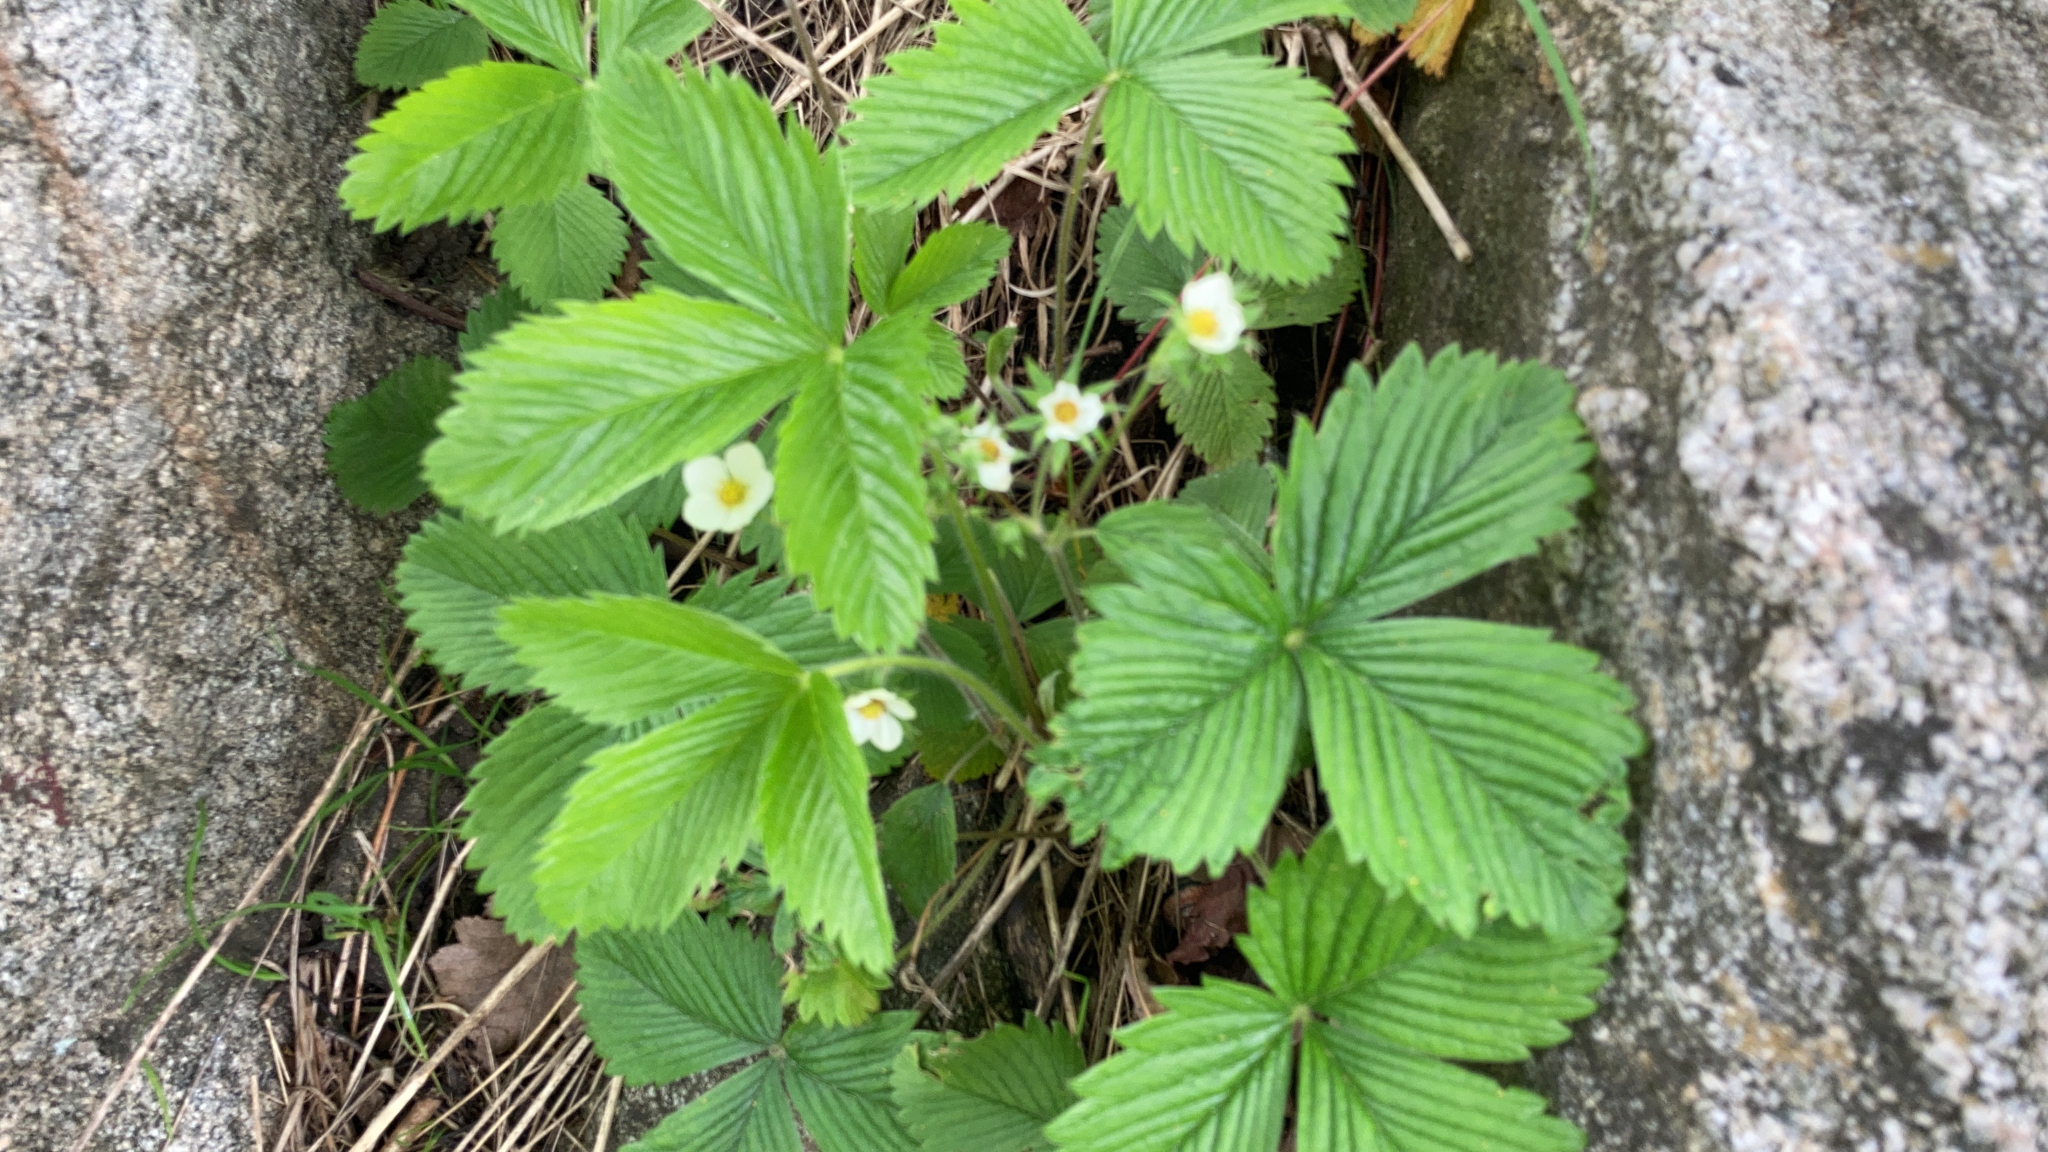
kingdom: Plantae
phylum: Tracheophyta
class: Magnoliopsida
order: Rosales
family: Rosaceae
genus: Fragaria
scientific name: Fragaria vesca
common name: Wild strawberry
